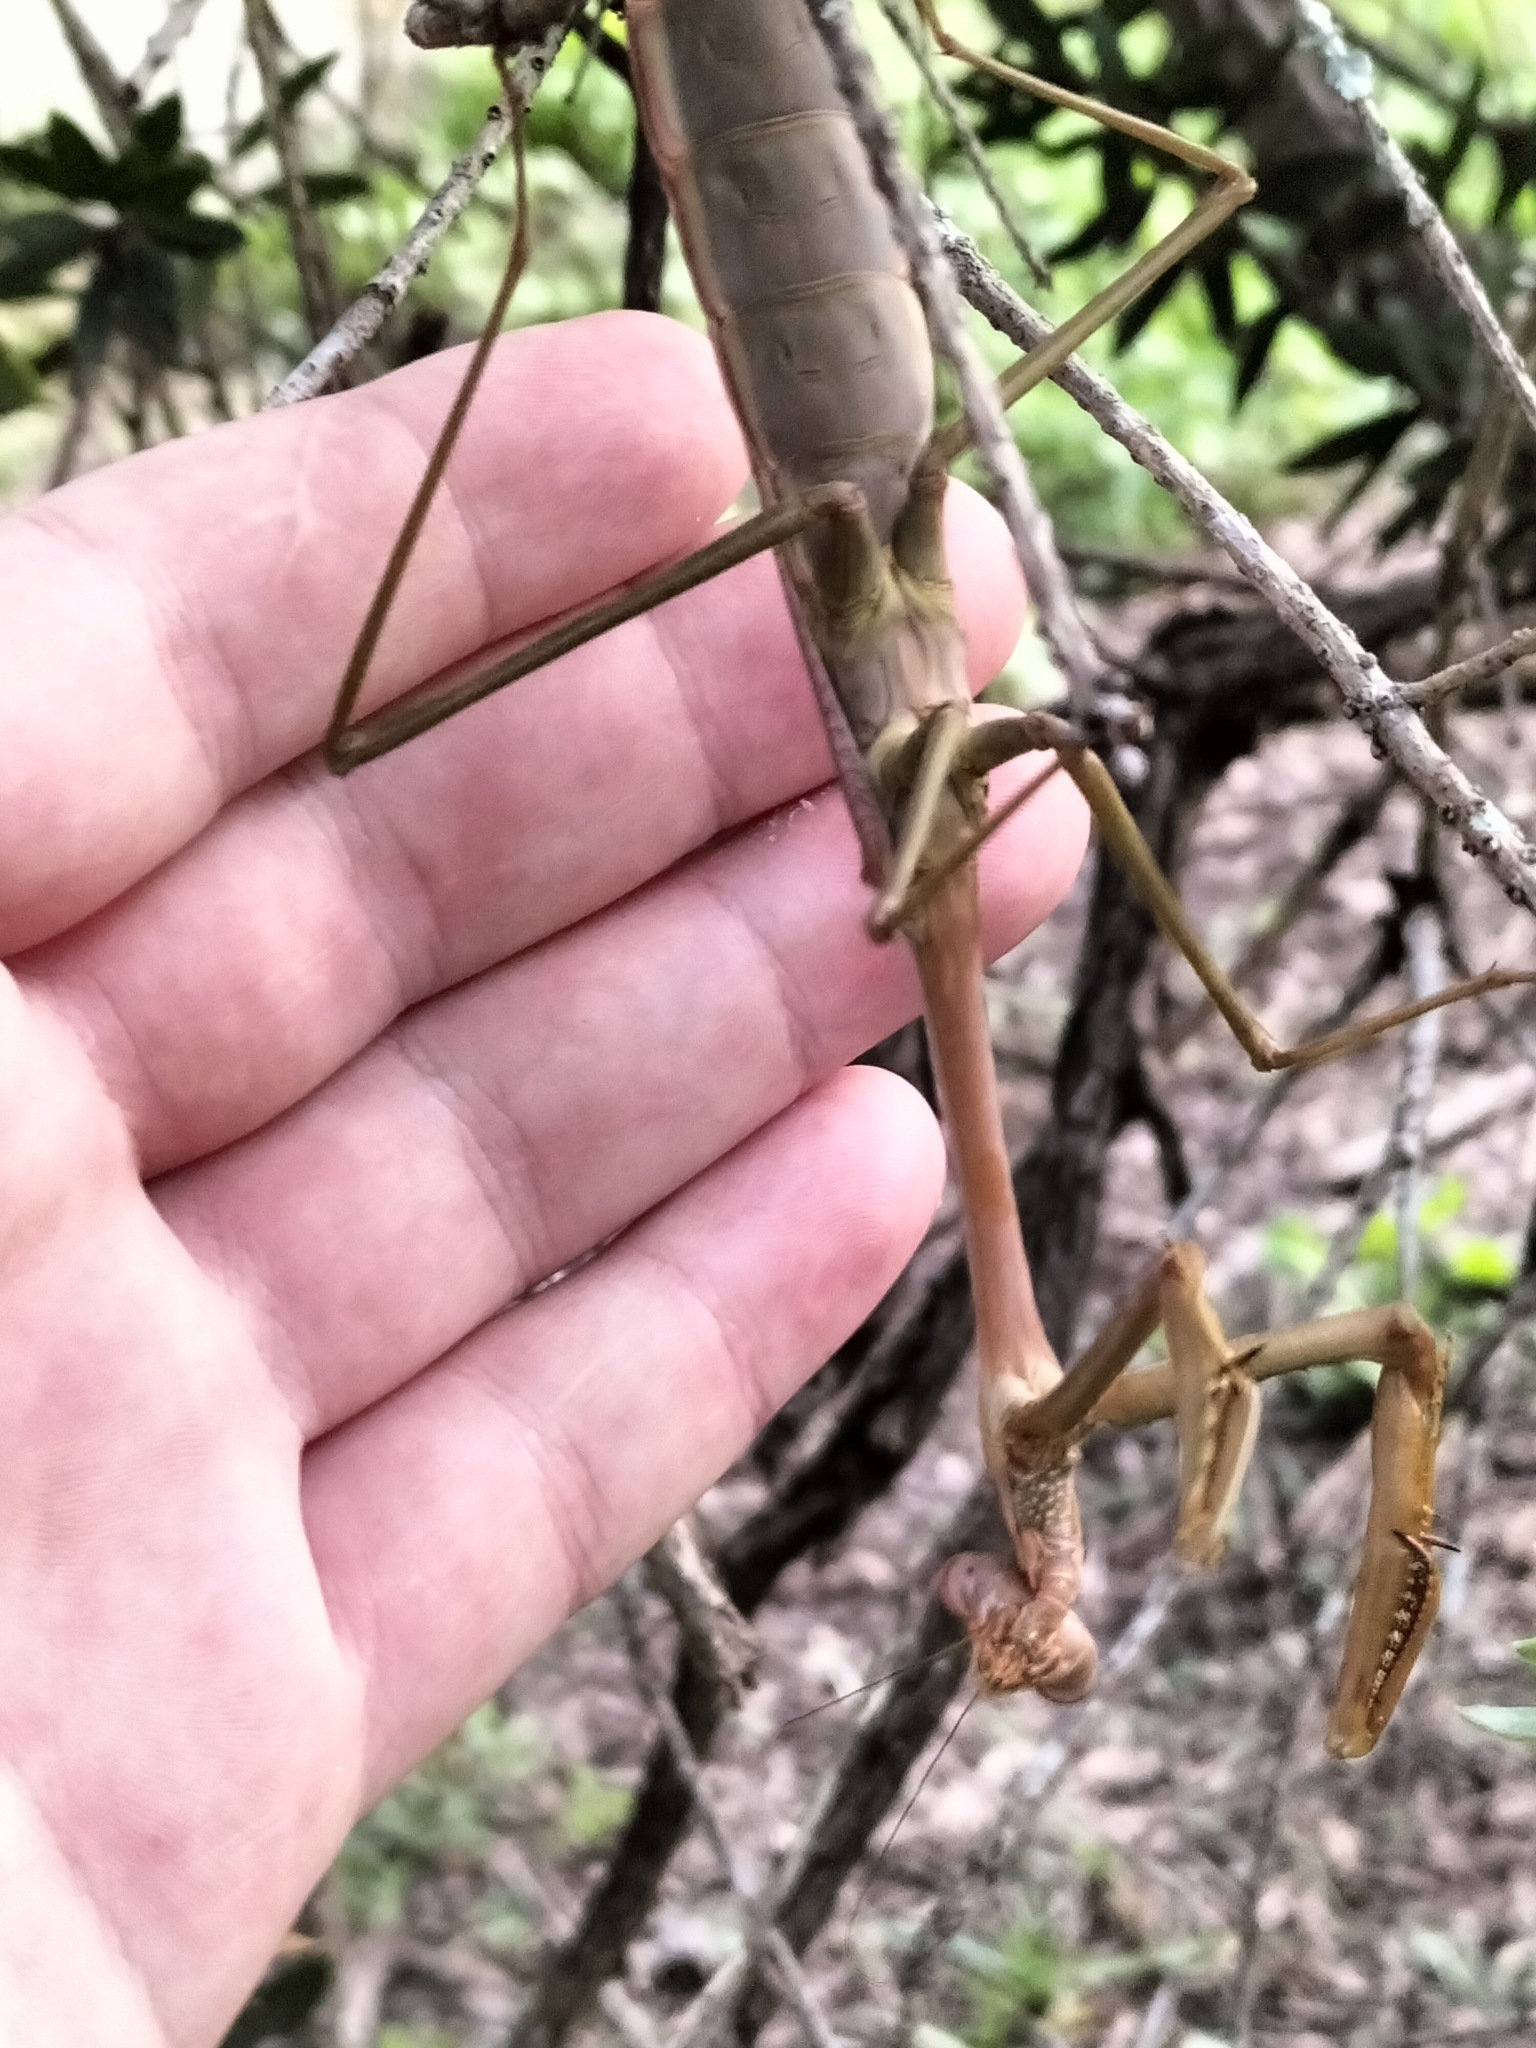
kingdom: Animalia
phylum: Arthropoda
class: Insecta
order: Mantodea
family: Mantidae
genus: Archimantis
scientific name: Archimantis latistyla
